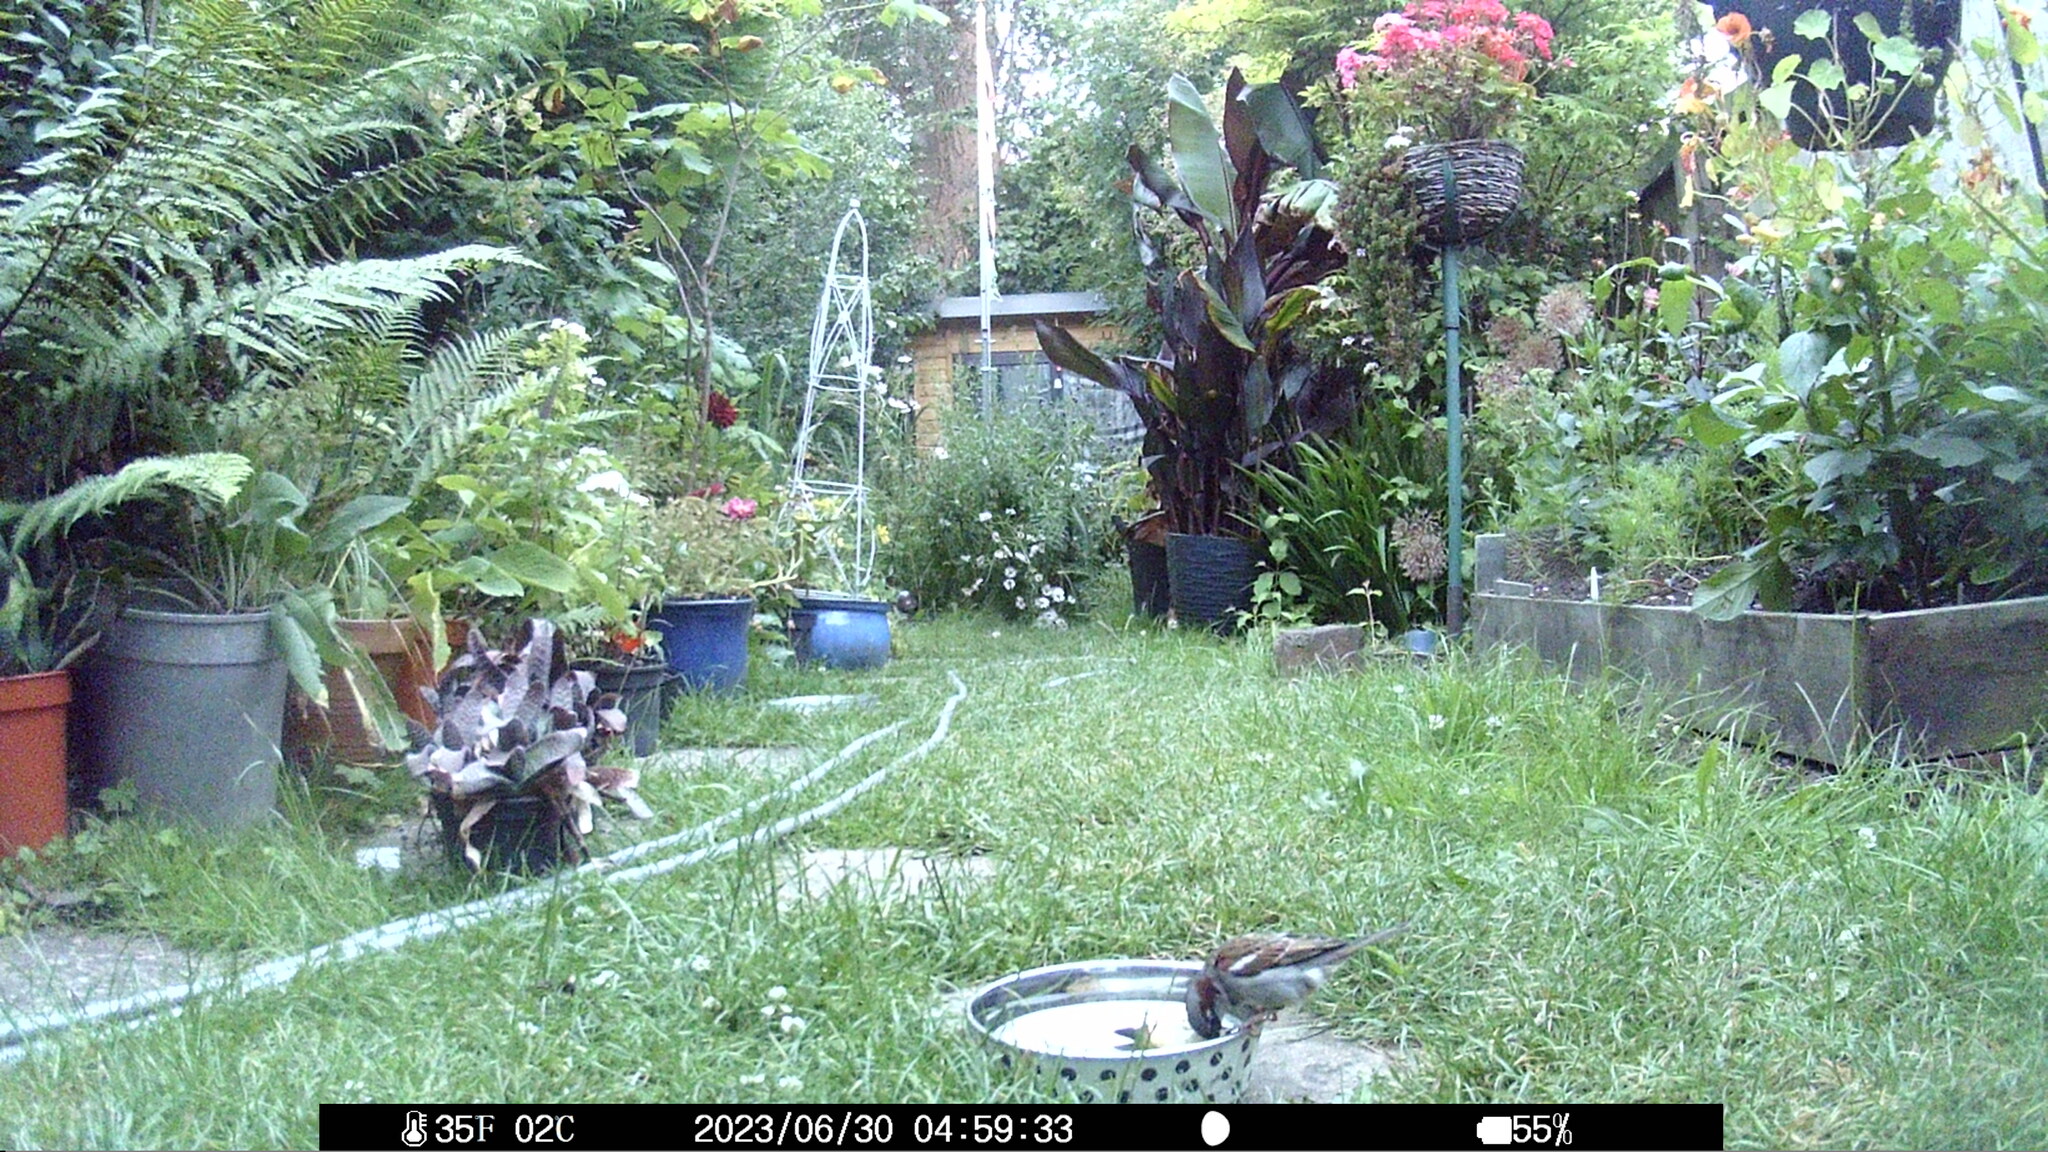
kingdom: Animalia
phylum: Chordata
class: Aves
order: Passeriformes
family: Passeridae
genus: Passer
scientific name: Passer domesticus
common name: House sparrow
